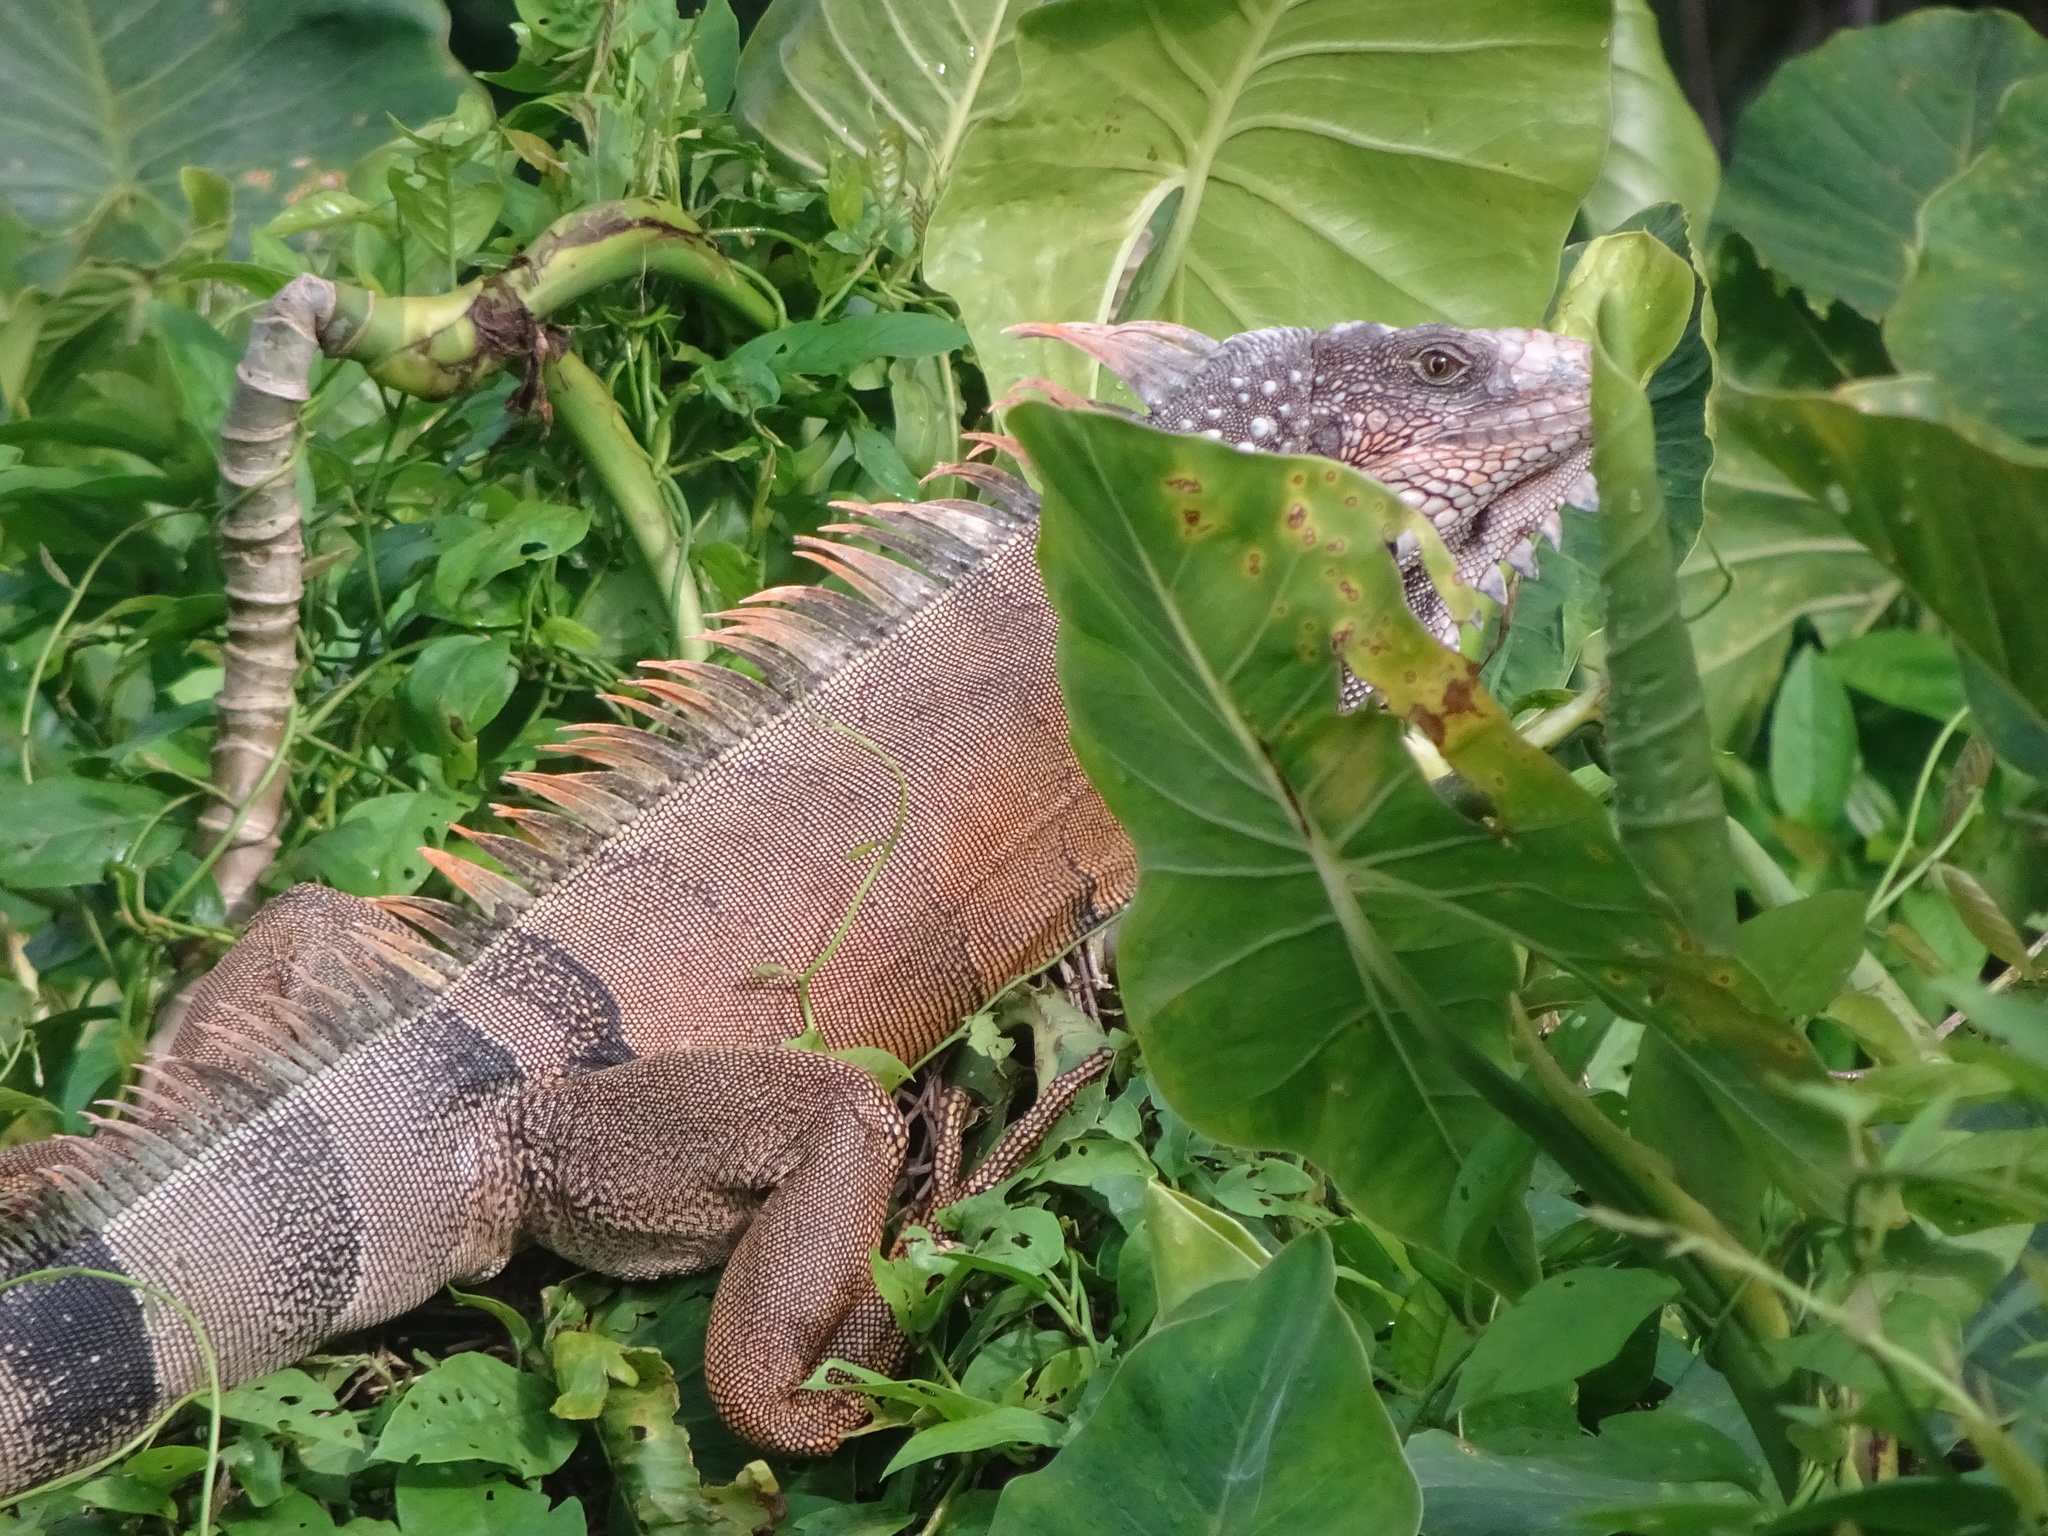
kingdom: Animalia
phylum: Chordata
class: Squamata
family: Iguanidae
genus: Iguana
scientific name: Iguana iguana
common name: Green iguana
